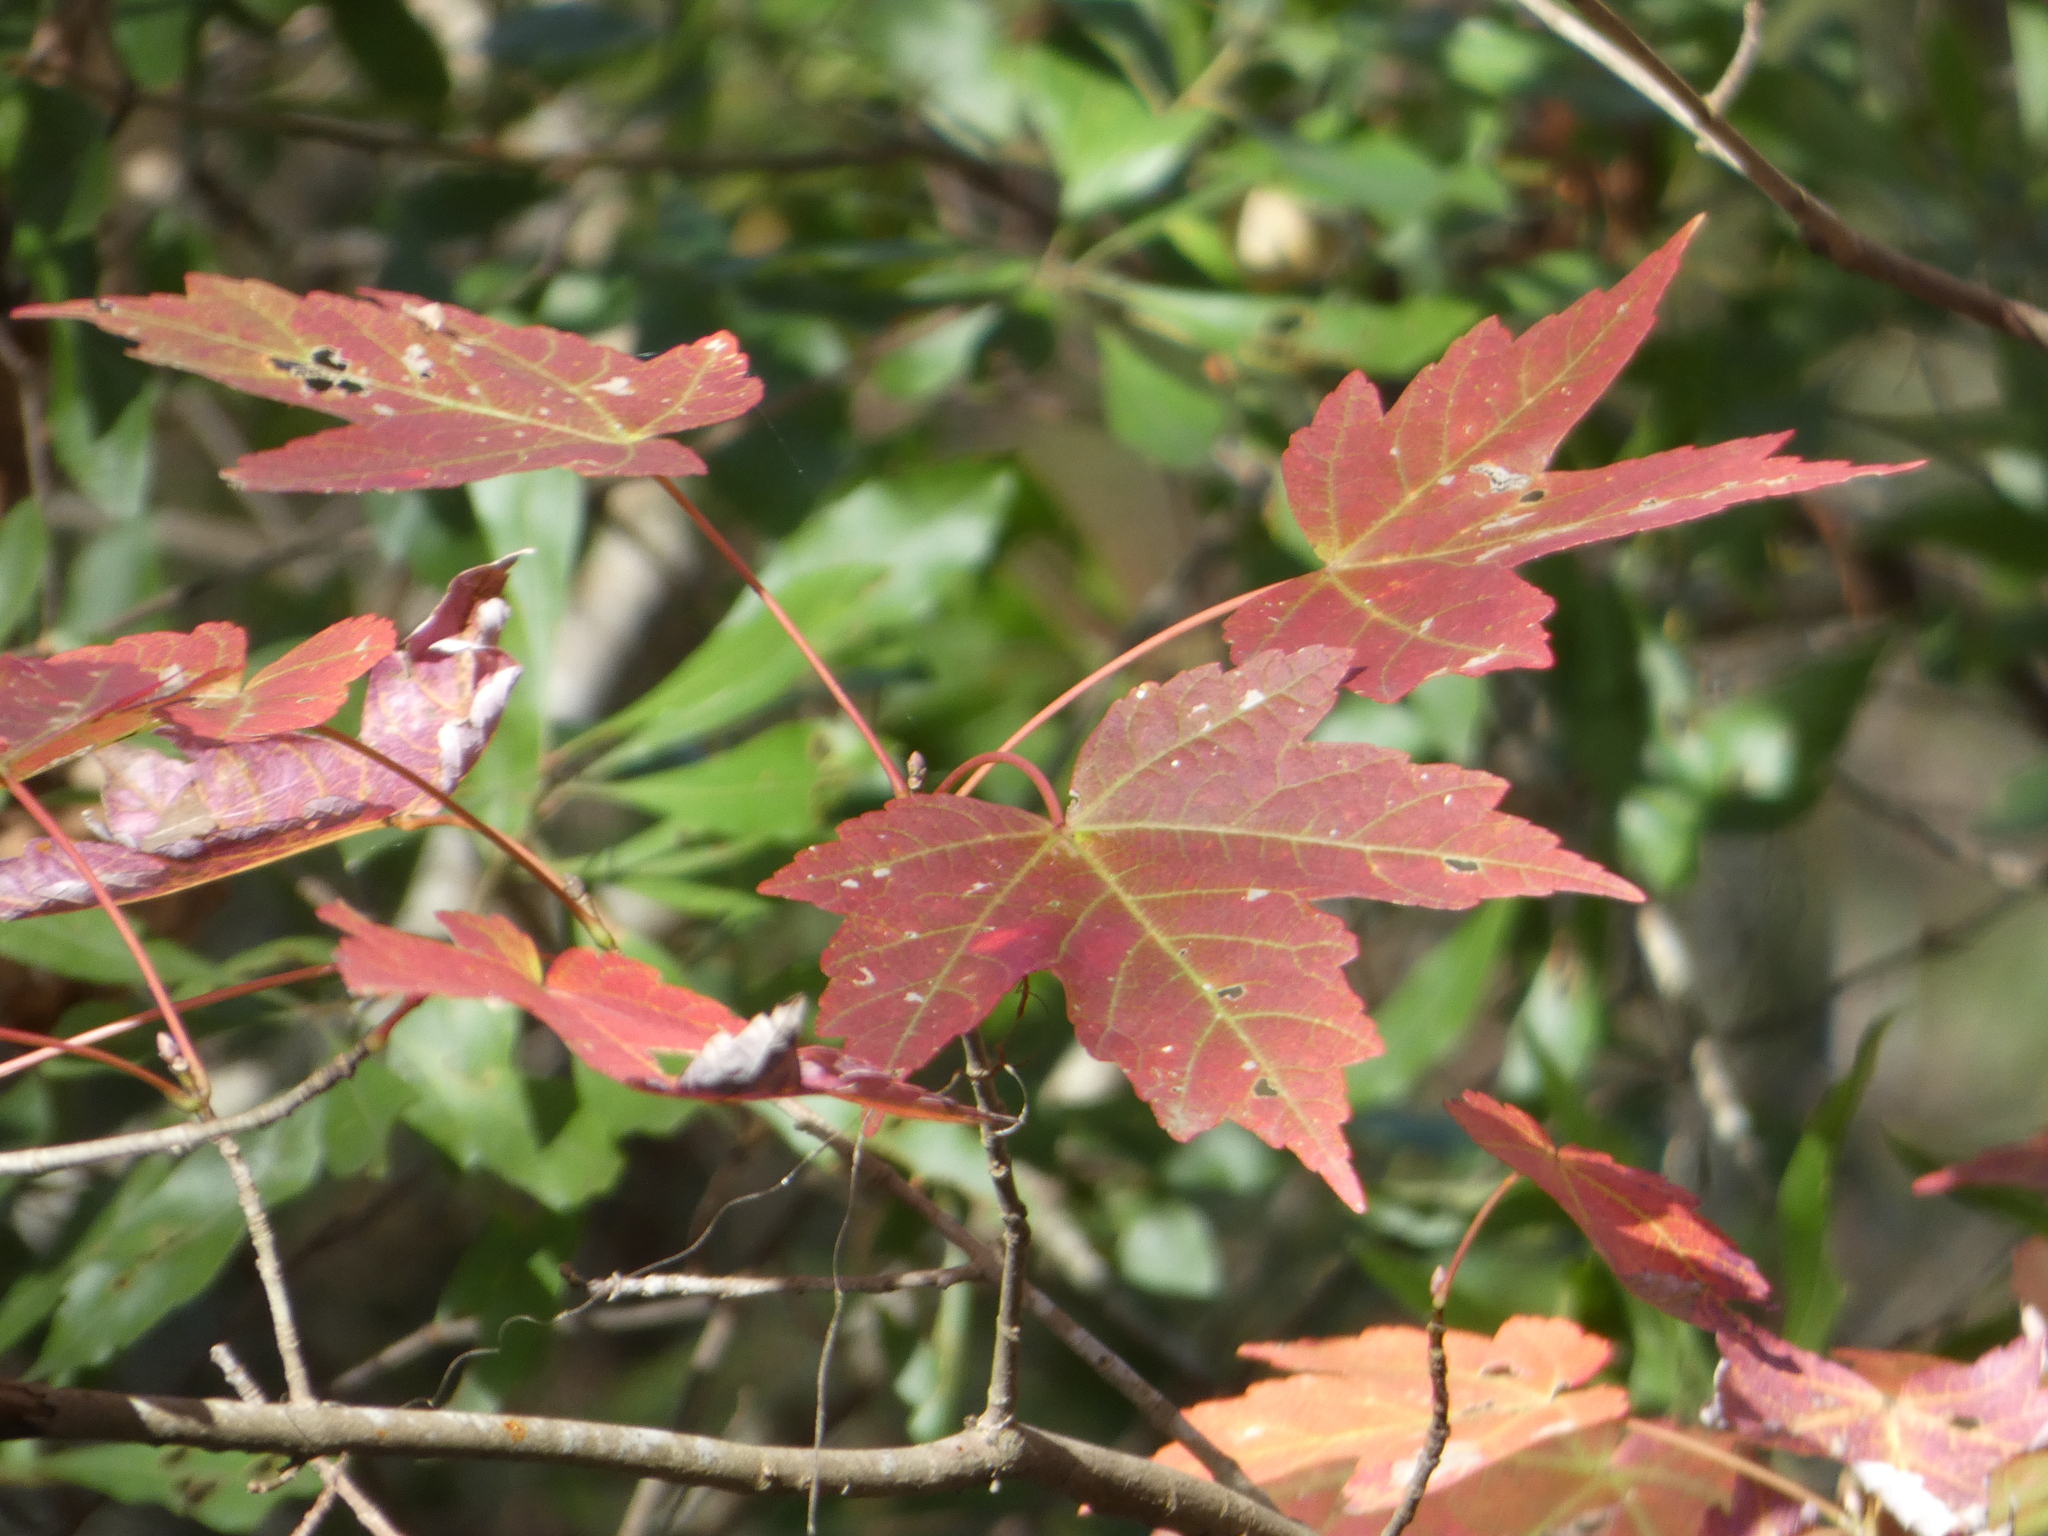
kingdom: Plantae
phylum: Tracheophyta
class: Magnoliopsida
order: Sapindales
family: Sapindaceae
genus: Acer
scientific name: Acer rubrum
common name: Red maple
